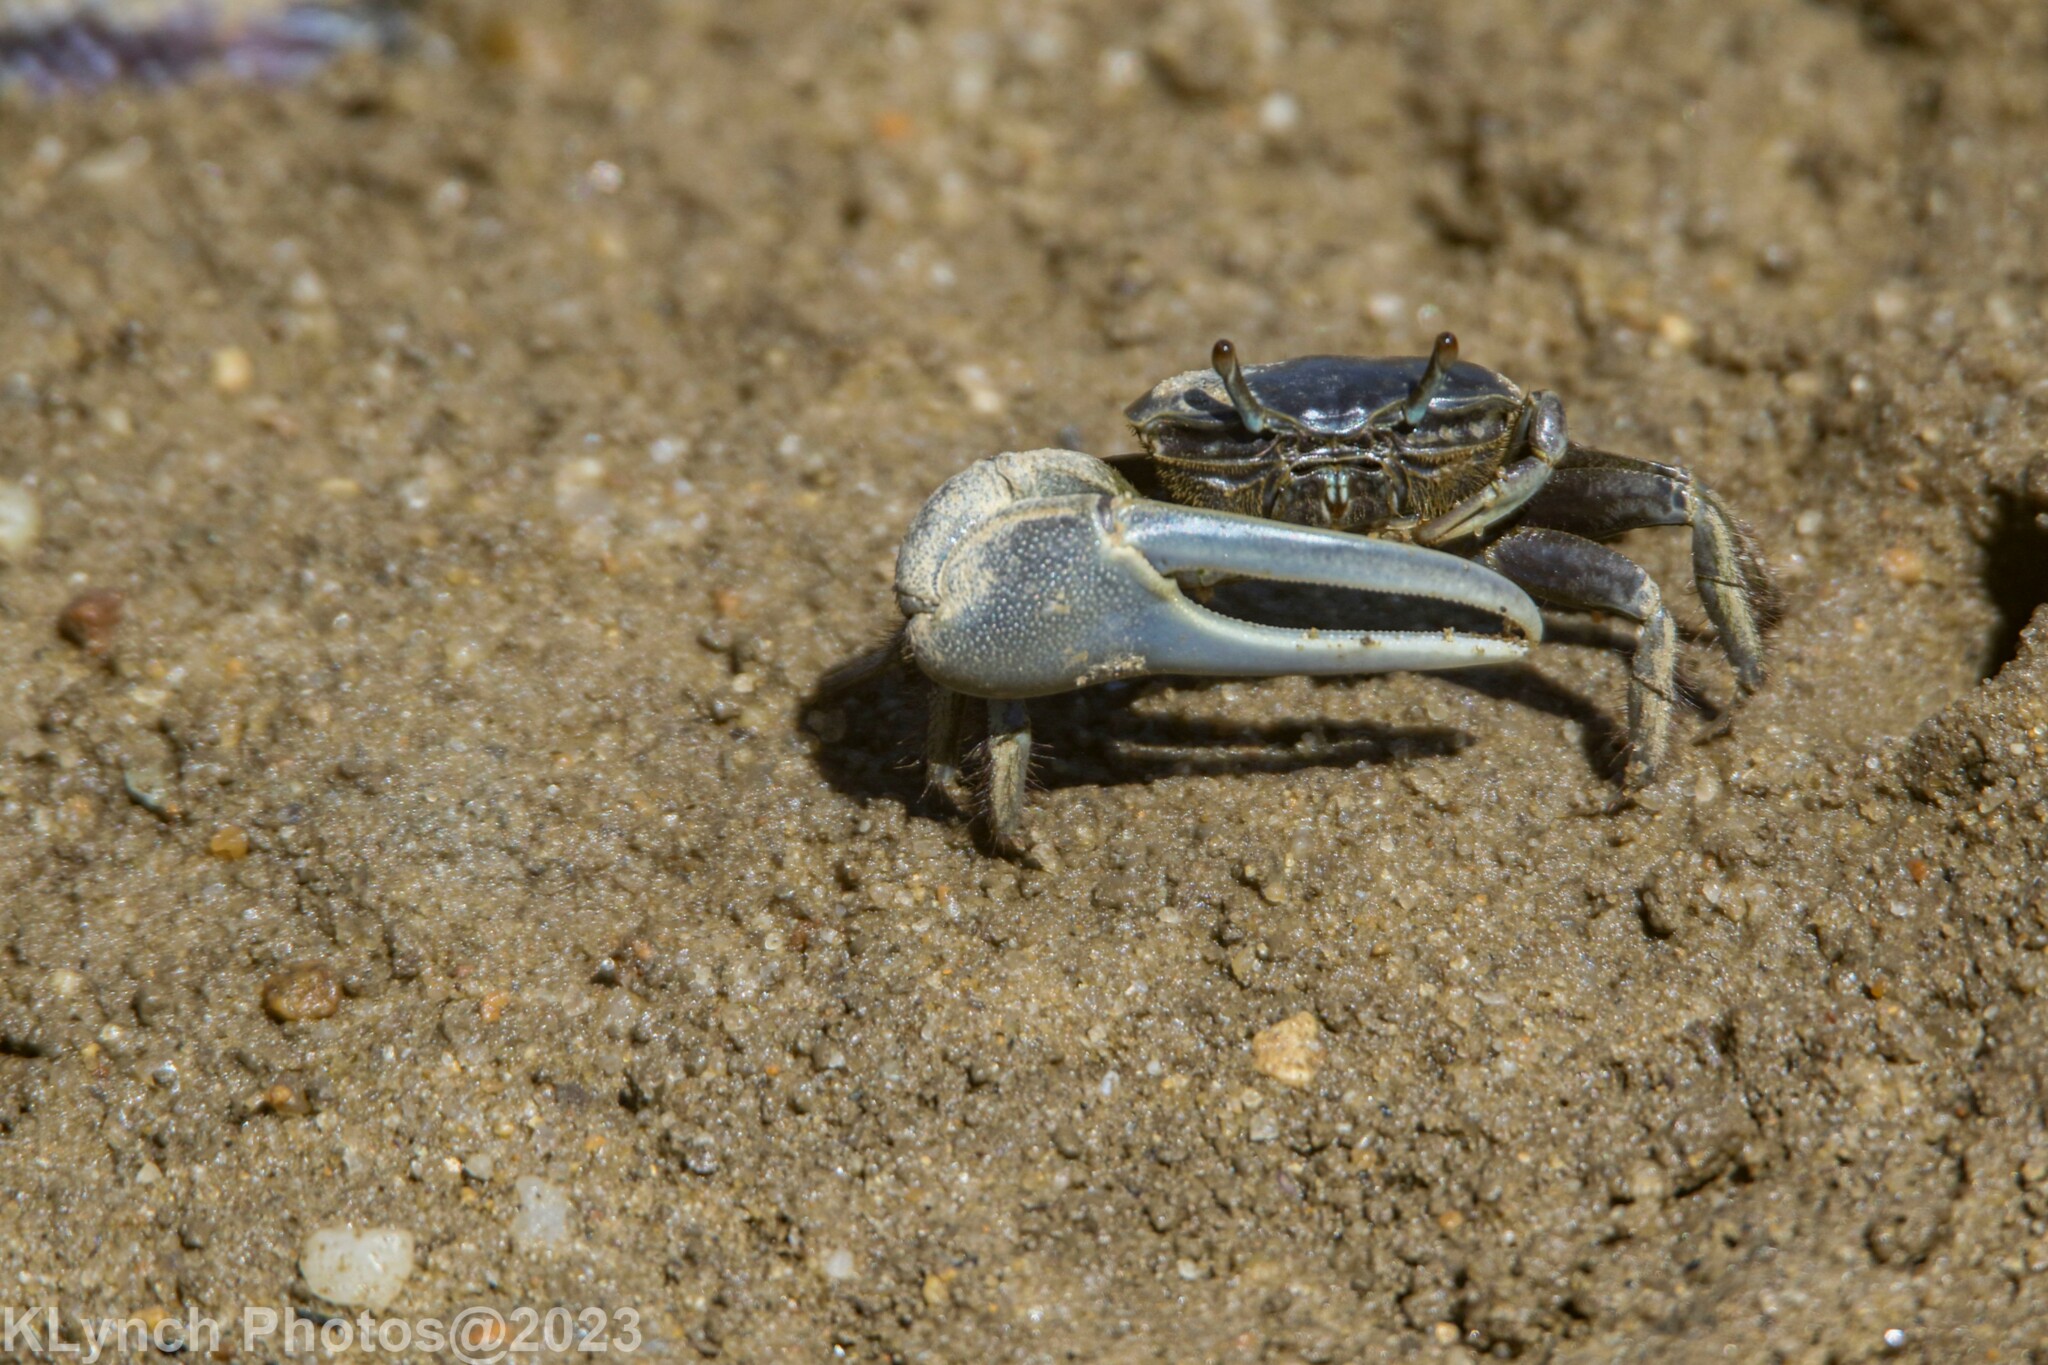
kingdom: Animalia
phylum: Arthropoda
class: Malacostraca
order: Decapoda
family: Ocypodidae
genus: Minuca
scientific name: Minuca pugnax
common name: Mud fiddler crab
